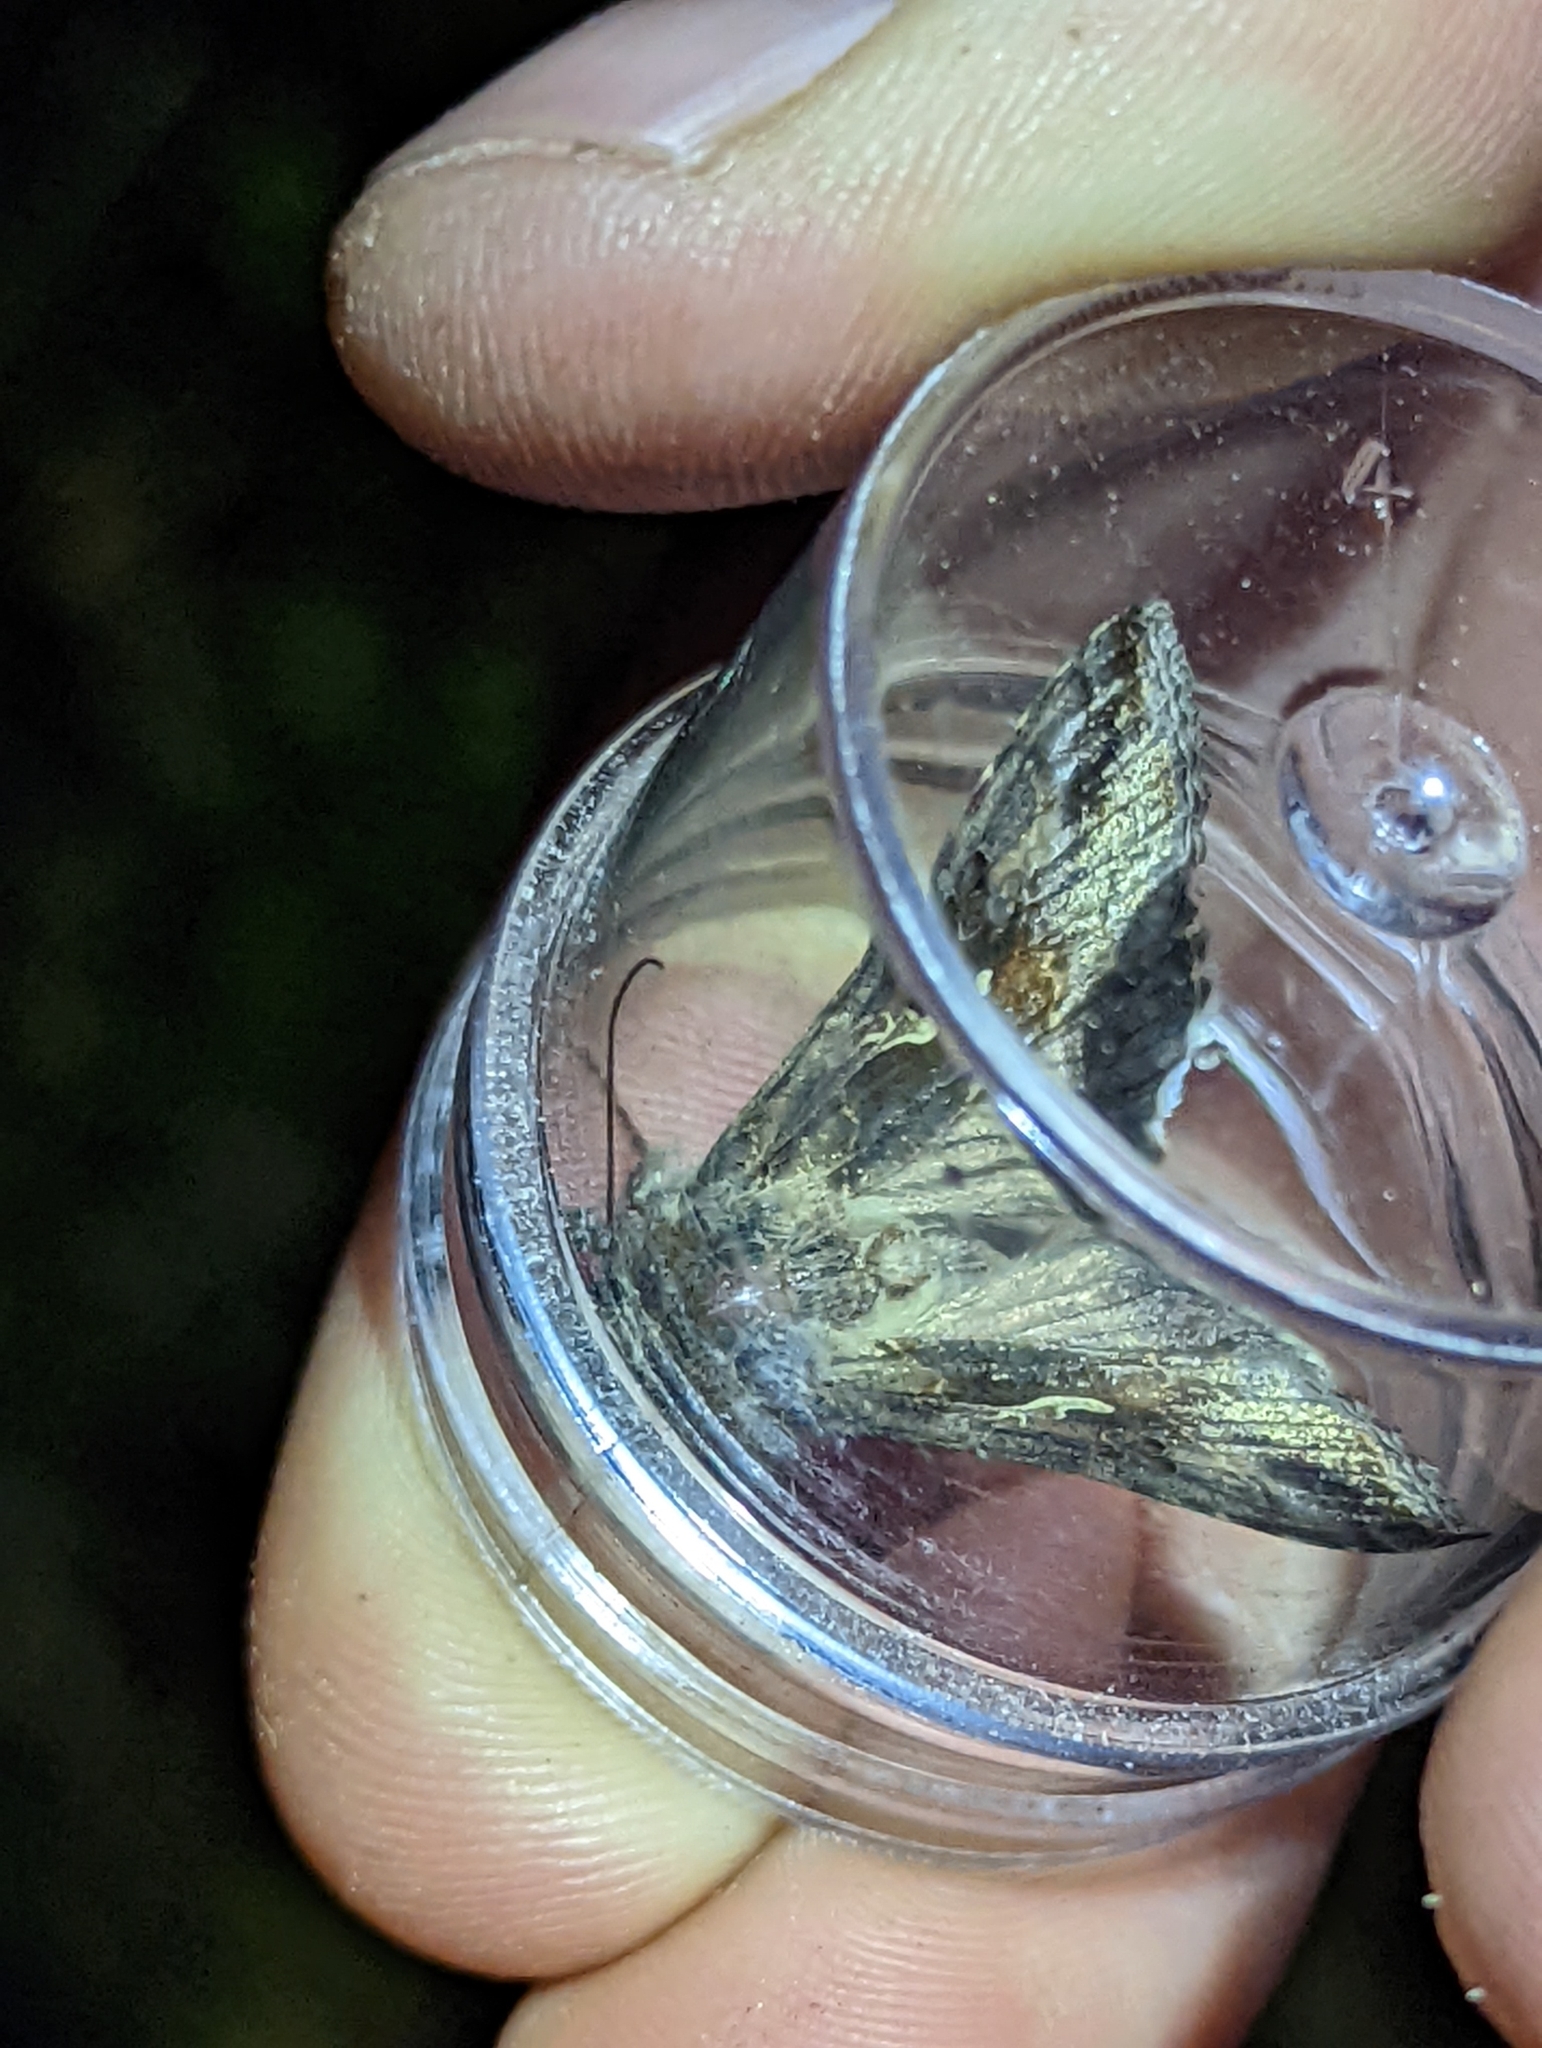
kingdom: Animalia
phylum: Arthropoda
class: Insecta
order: Lepidoptera
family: Noctuidae
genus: Autographa
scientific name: Autographa gamma
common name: Silver y
